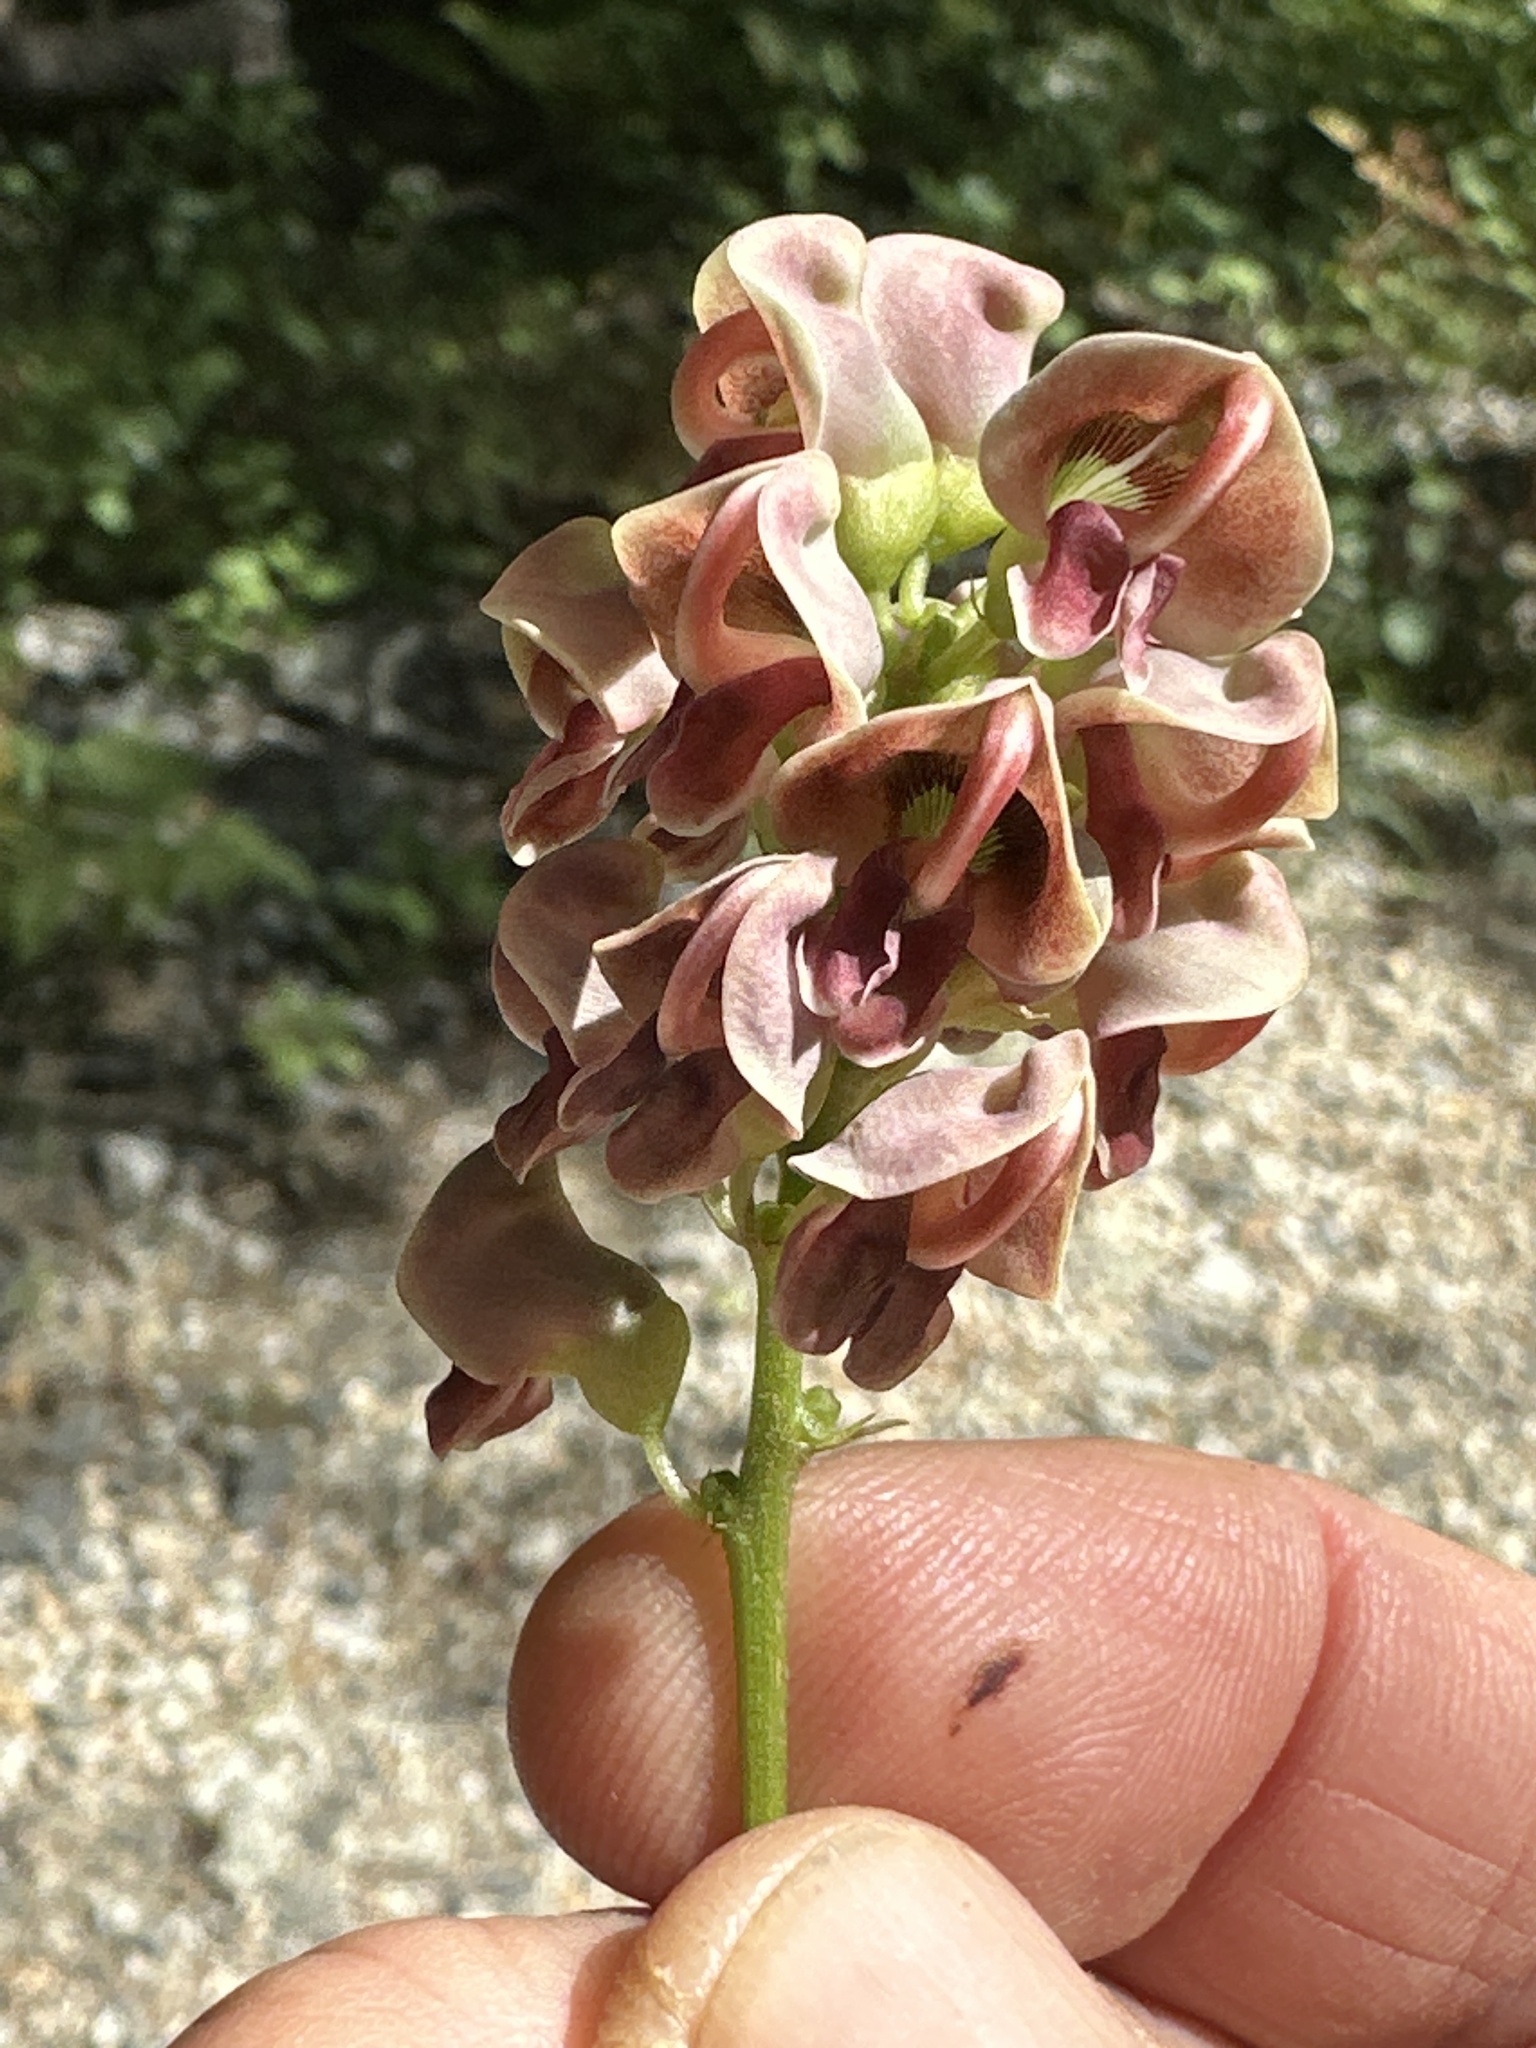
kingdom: Plantae
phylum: Tracheophyta
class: Magnoliopsida
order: Fabales
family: Fabaceae
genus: Apios
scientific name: Apios americana
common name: American potato-bean
